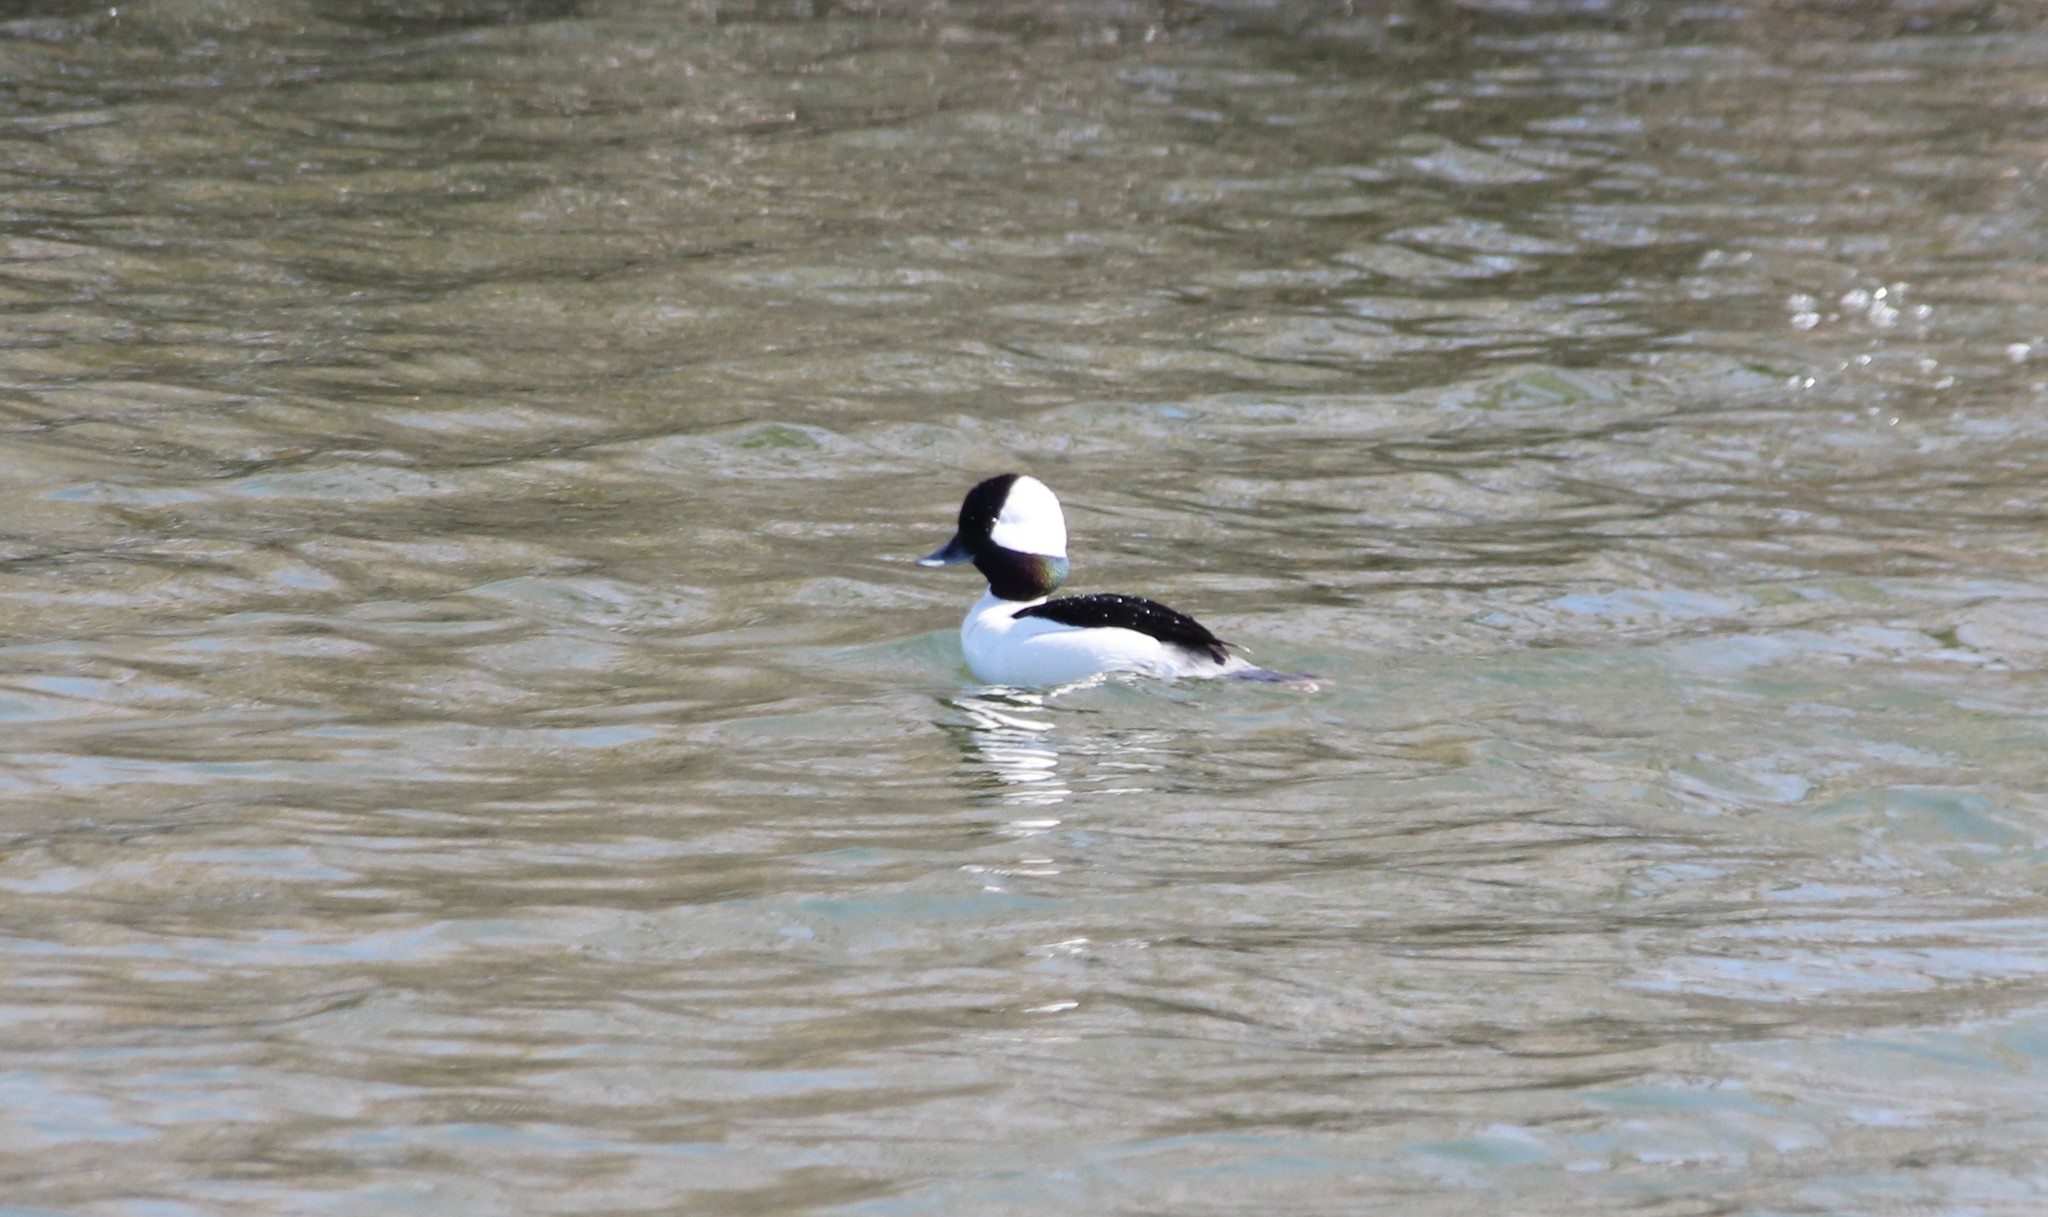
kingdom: Animalia
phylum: Chordata
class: Aves
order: Anseriformes
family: Anatidae
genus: Bucephala
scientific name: Bucephala albeola
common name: Bufflehead
